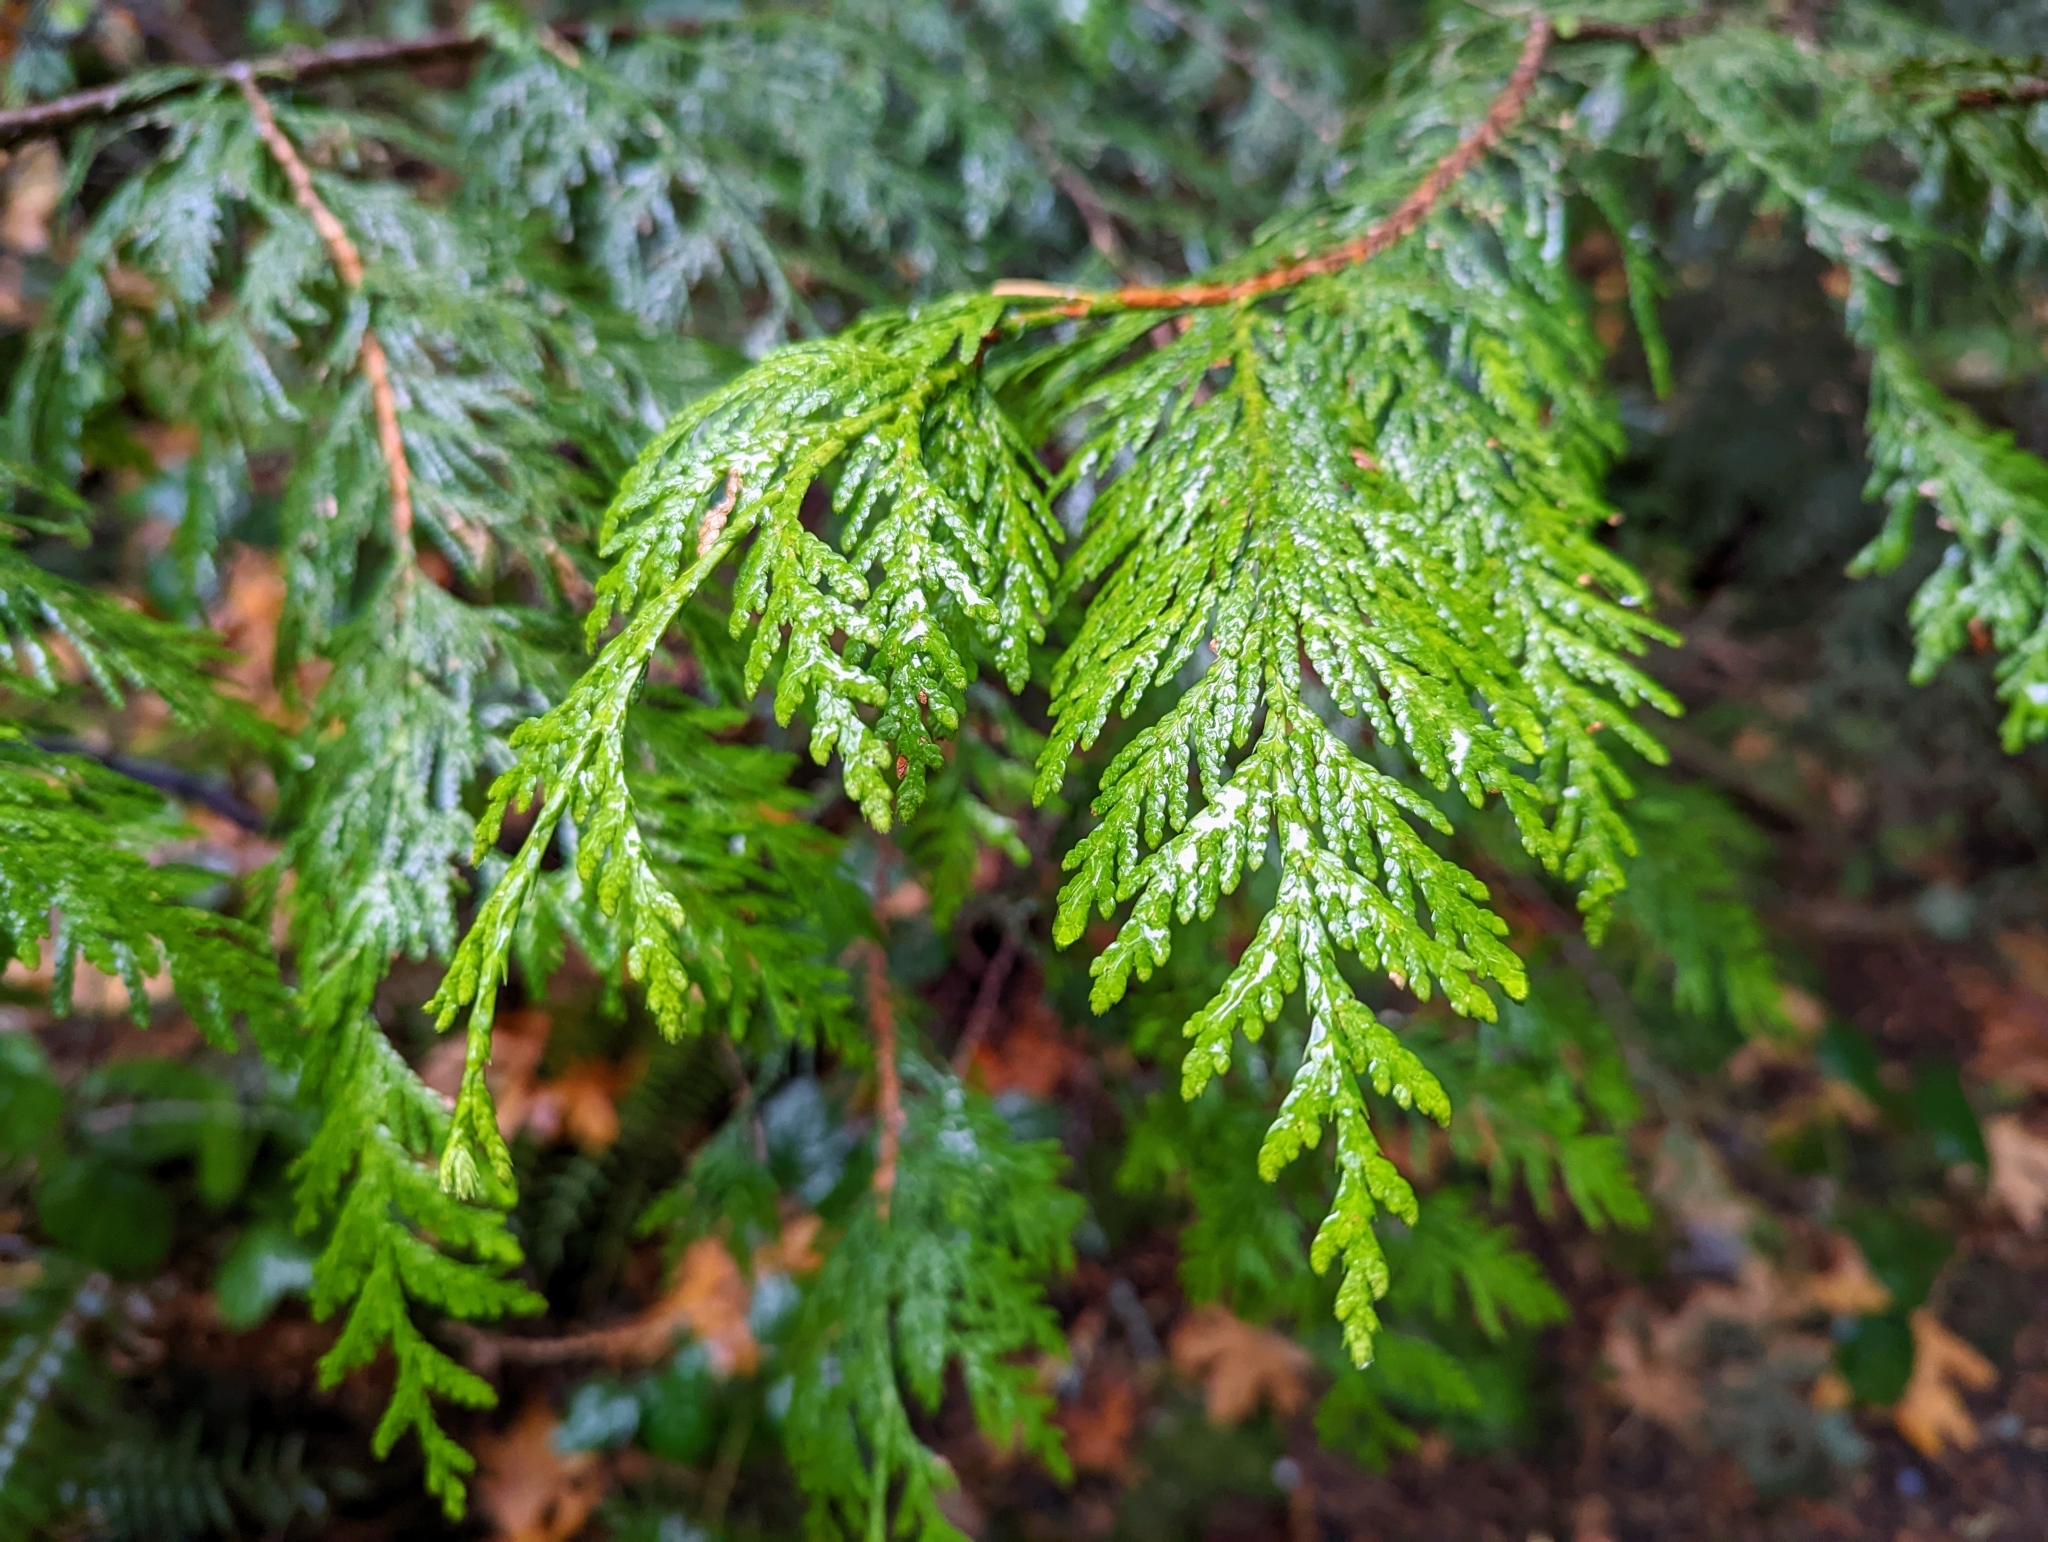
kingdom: Plantae
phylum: Tracheophyta
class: Pinopsida
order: Pinales
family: Cupressaceae
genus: Thuja
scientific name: Thuja plicata
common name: Western red-cedar
